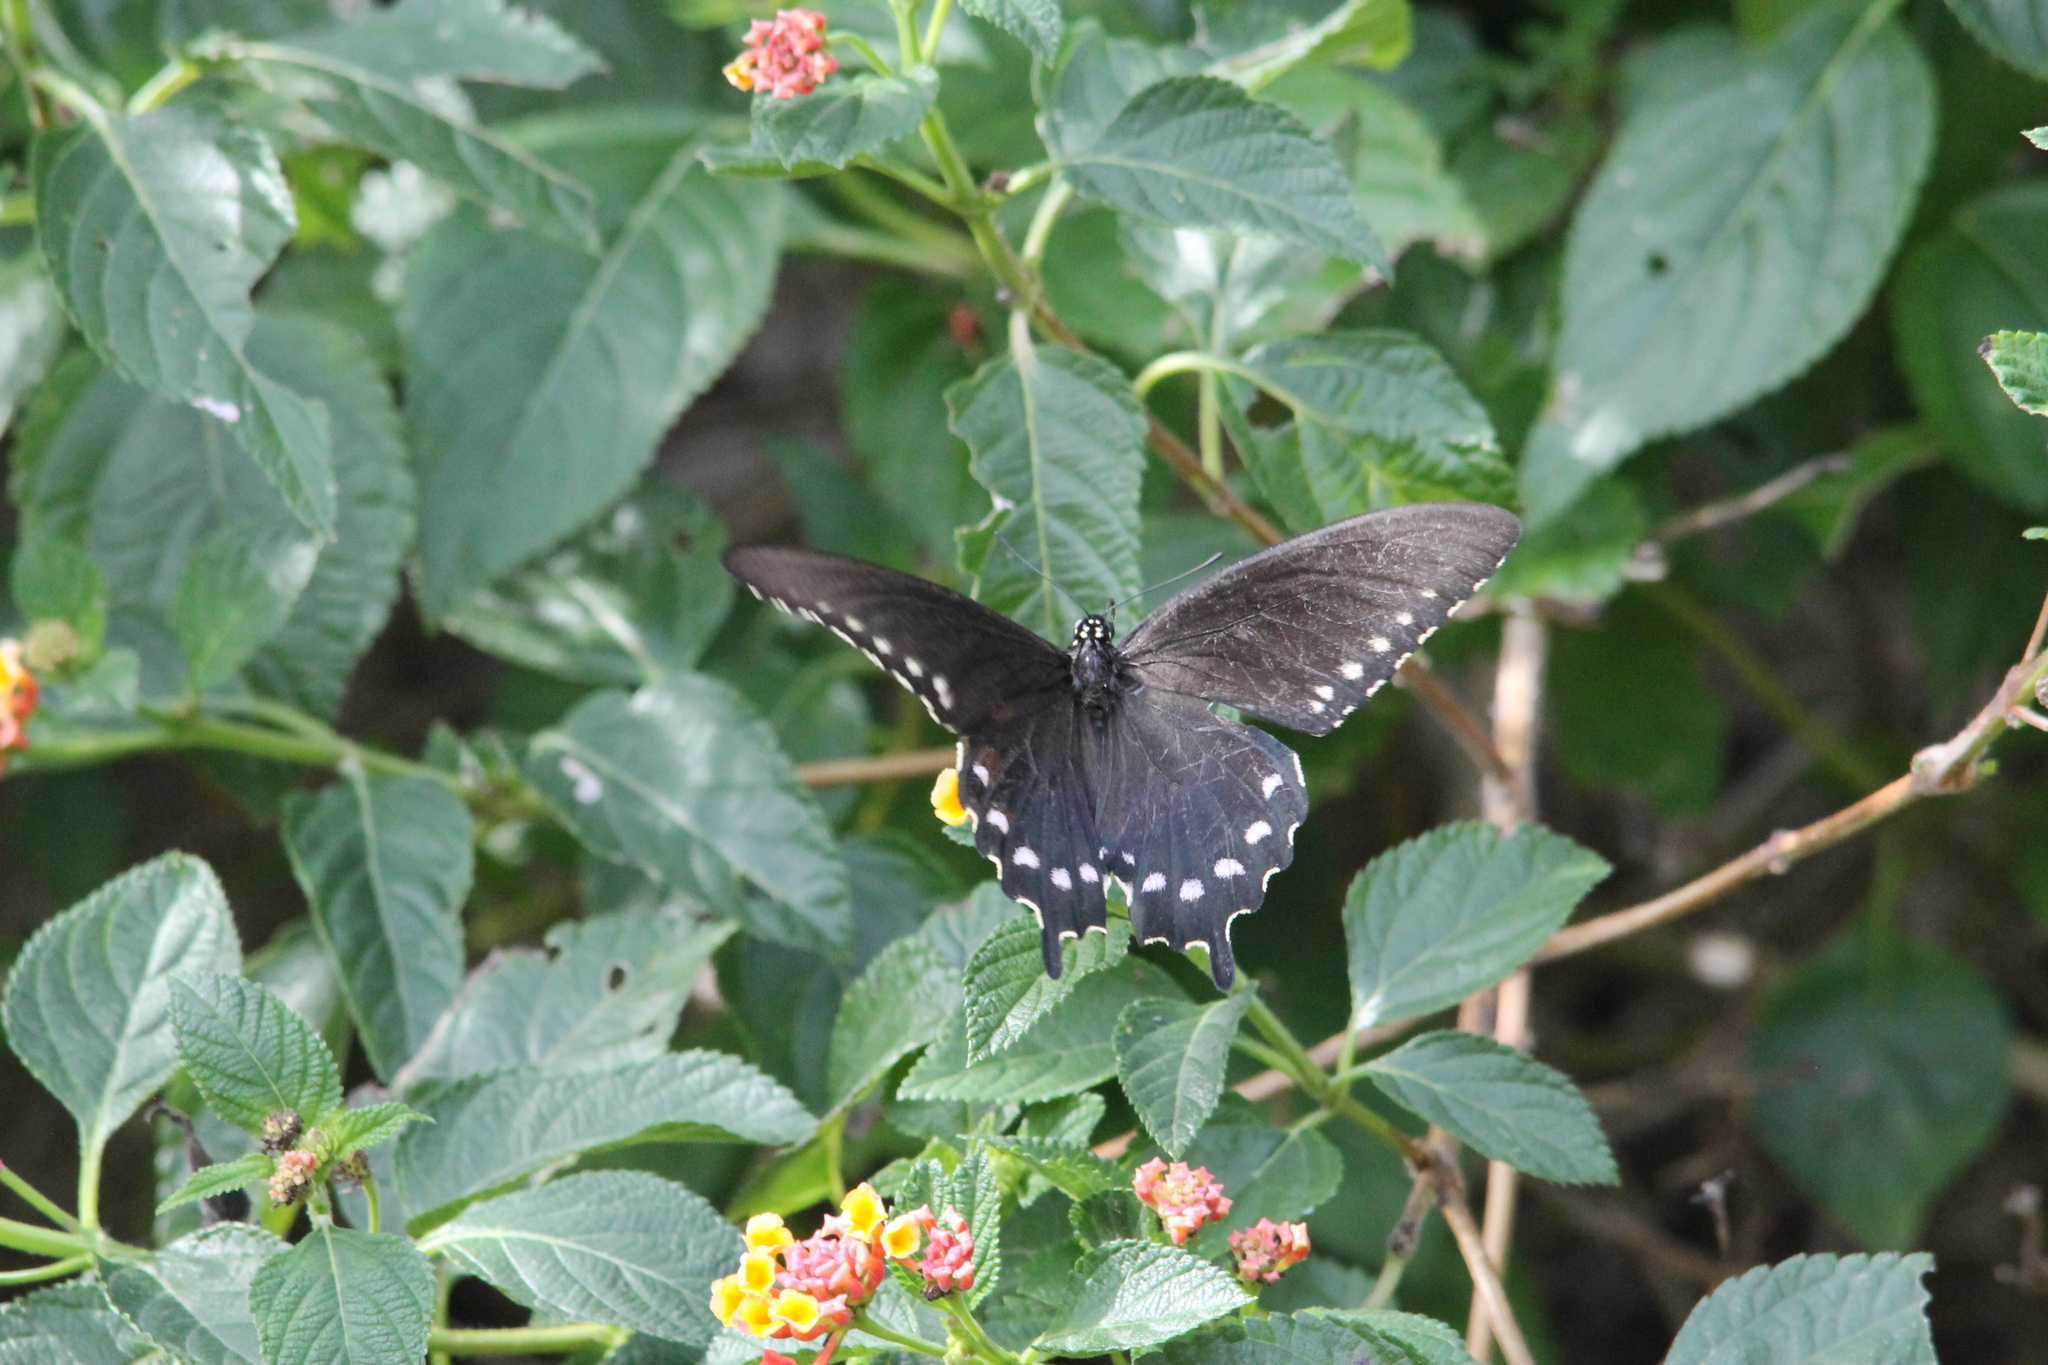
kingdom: Animalia
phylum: Arthropoda
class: Insecta
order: Lepidoptera
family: Papilionidae
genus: Battus
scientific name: Battus philenor
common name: Pipevine swallowtail
